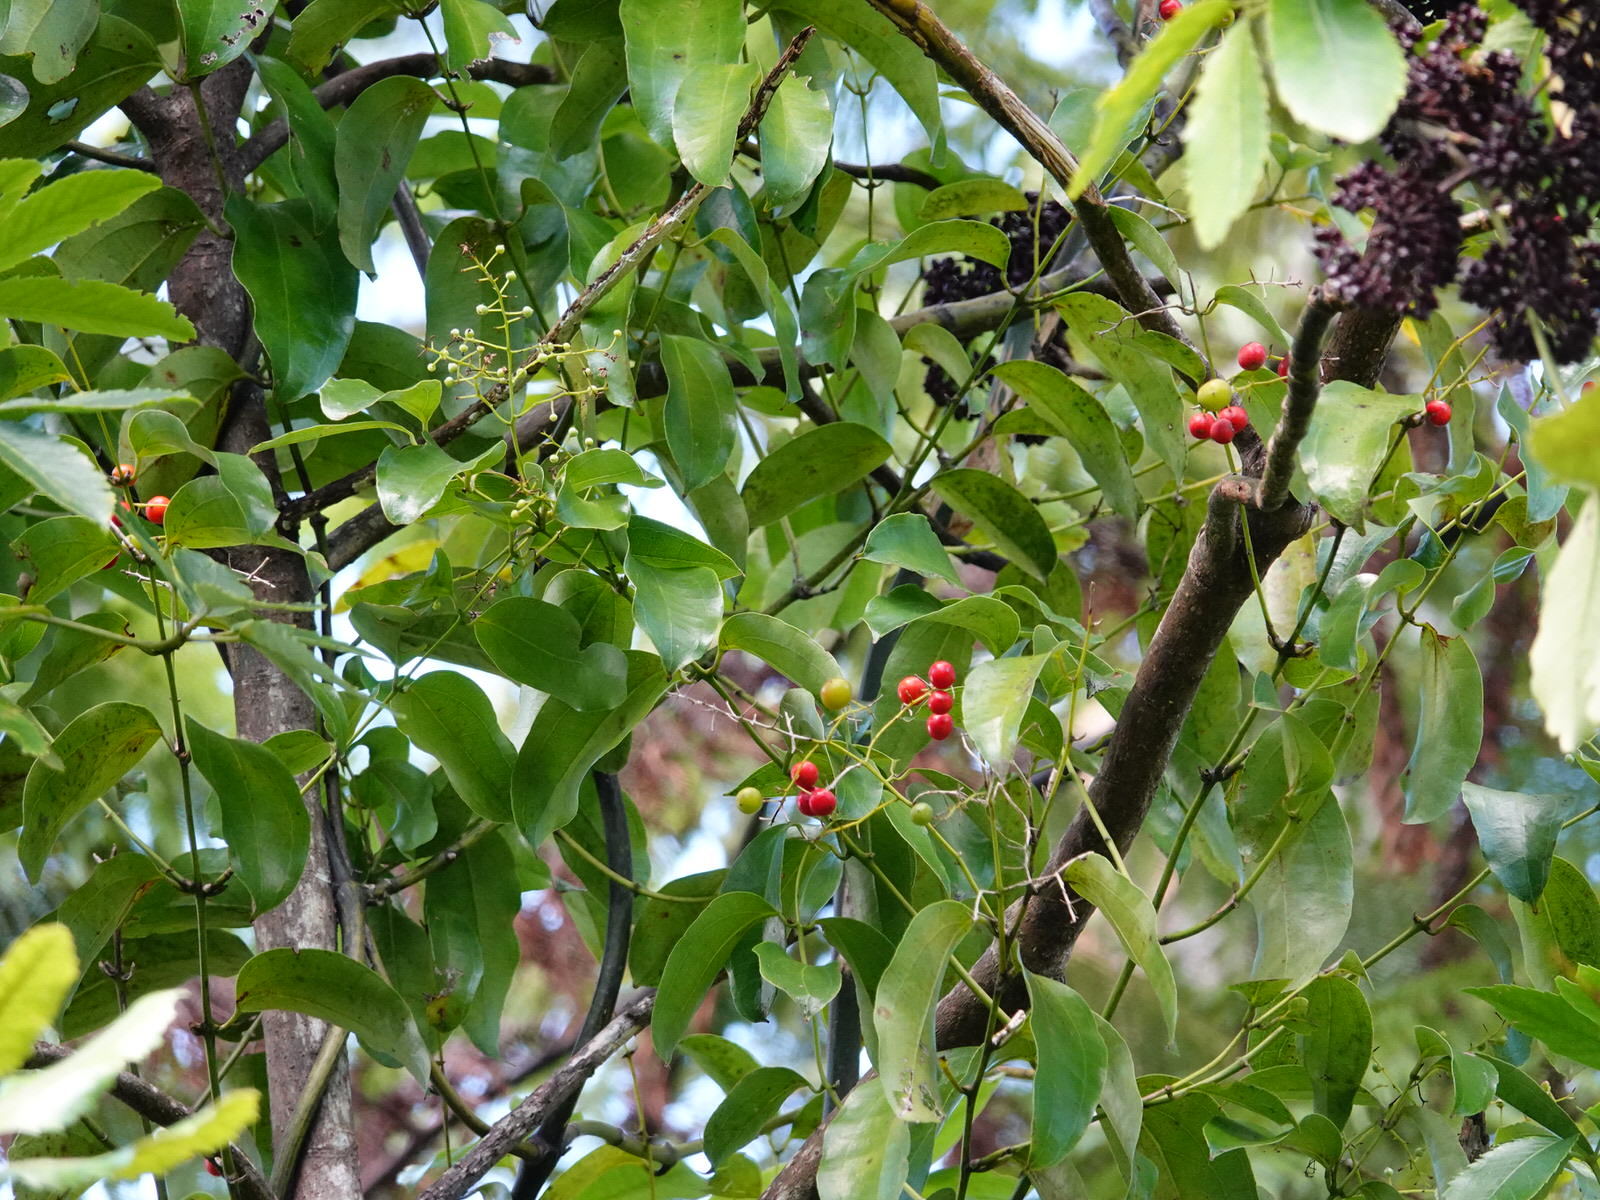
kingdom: Plantae
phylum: Tracheophyta
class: Liliopsida
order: Liliales
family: Ripogonaceae
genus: Ripogonum
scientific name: Ripogonum scandens
